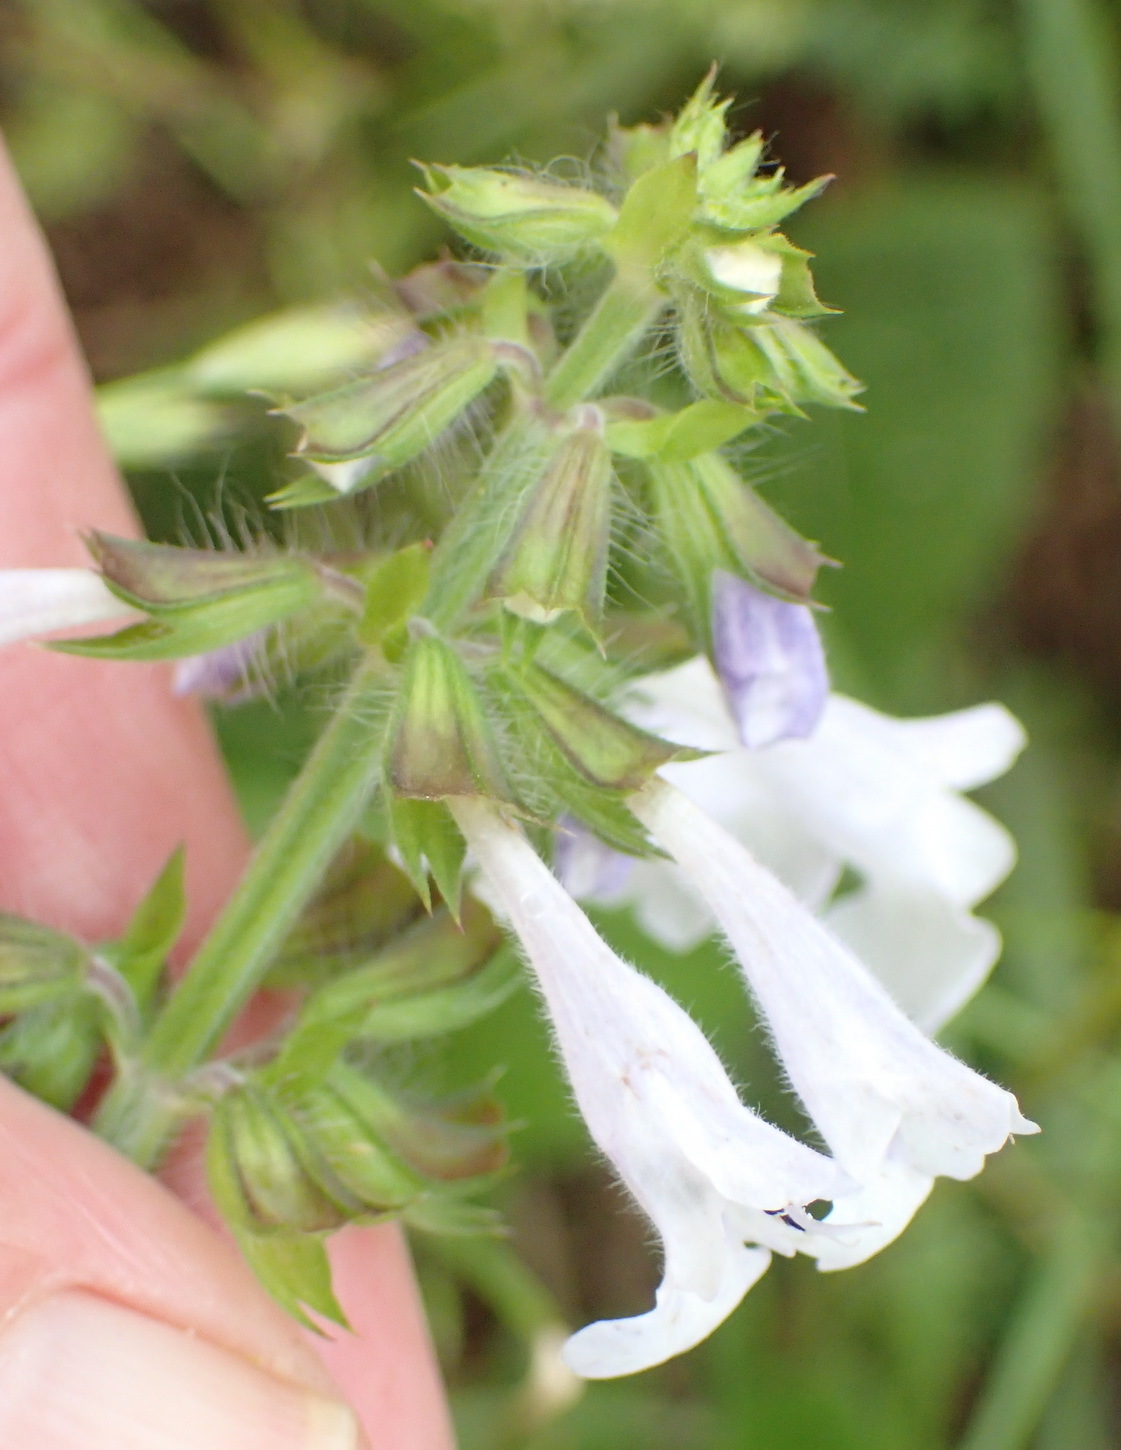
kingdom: Plantae
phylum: Tracheophyta
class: Magnoliopsida
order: Lamiales
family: Lamiaceae
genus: Salvia
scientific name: Salvia lyrata
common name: Cancerweed
